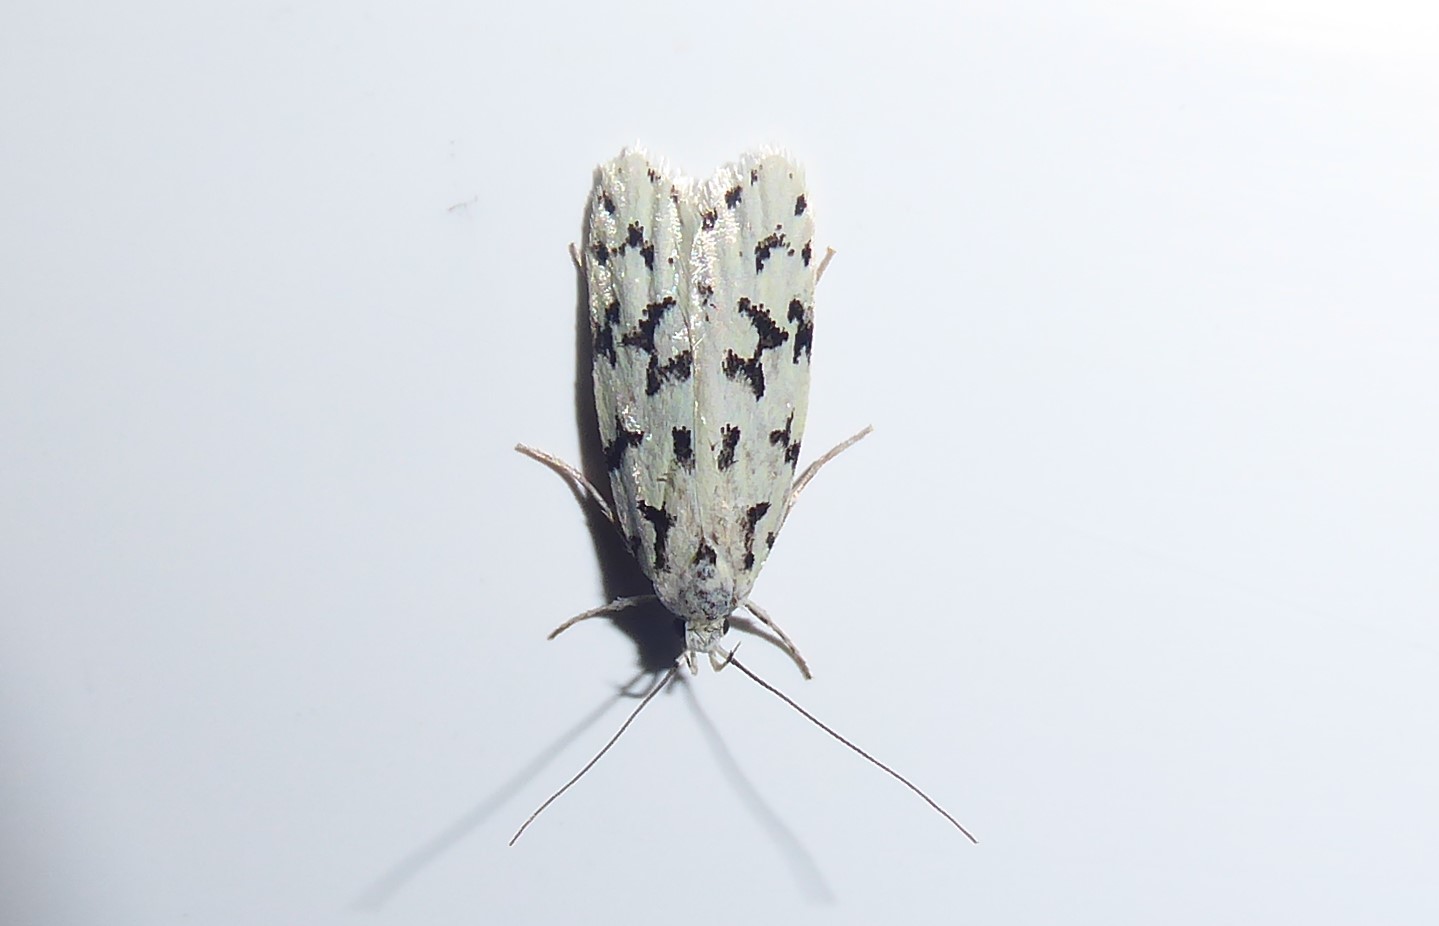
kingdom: Animalia
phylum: Arthropoda
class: Insecta
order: Lepidoptera
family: Oecophoridae
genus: Izatha
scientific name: Izatha huttoni
